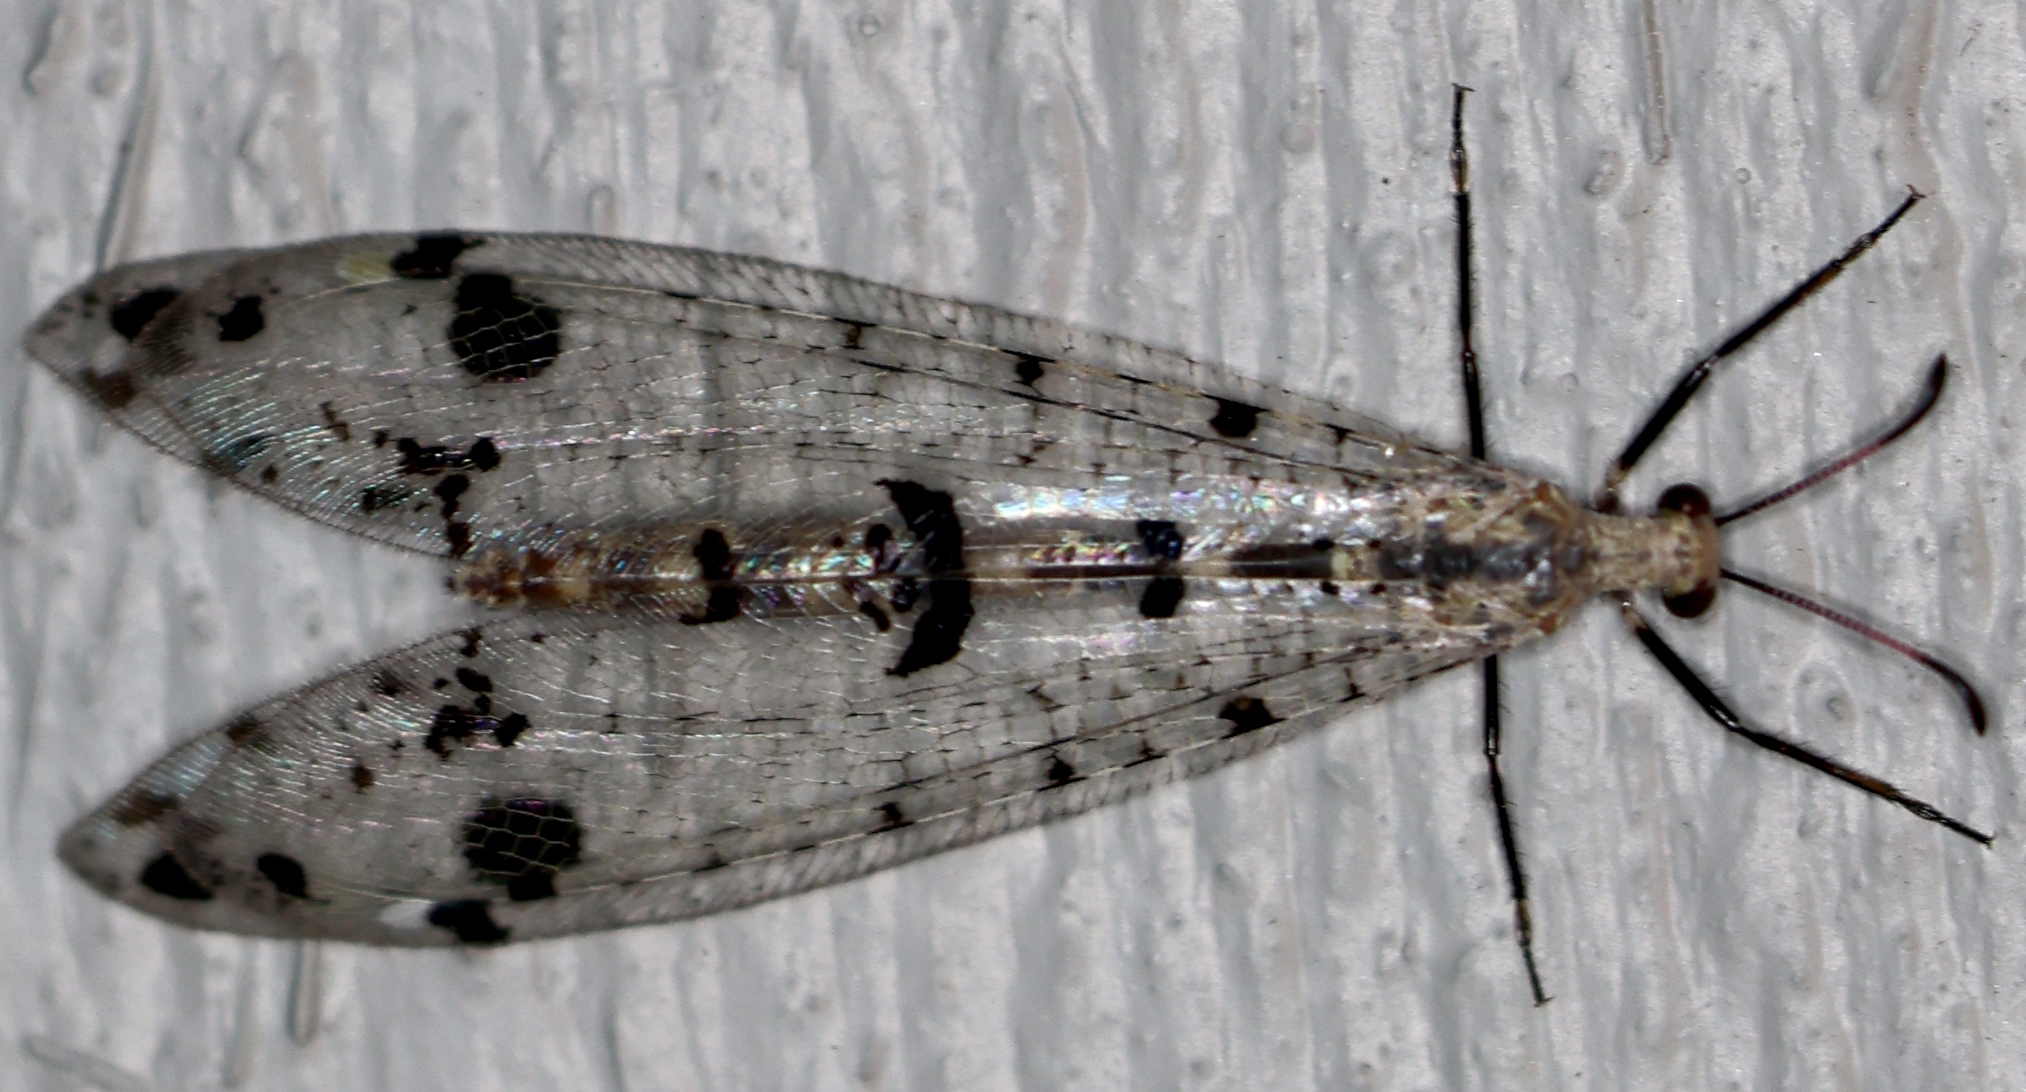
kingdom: Animalia
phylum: Arthropoda
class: Insecta
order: Neuroptera
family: Myrmeleontidae
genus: Dendroleon
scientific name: Dendroleon obsoletus
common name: Eastern spotted-winged antlion
